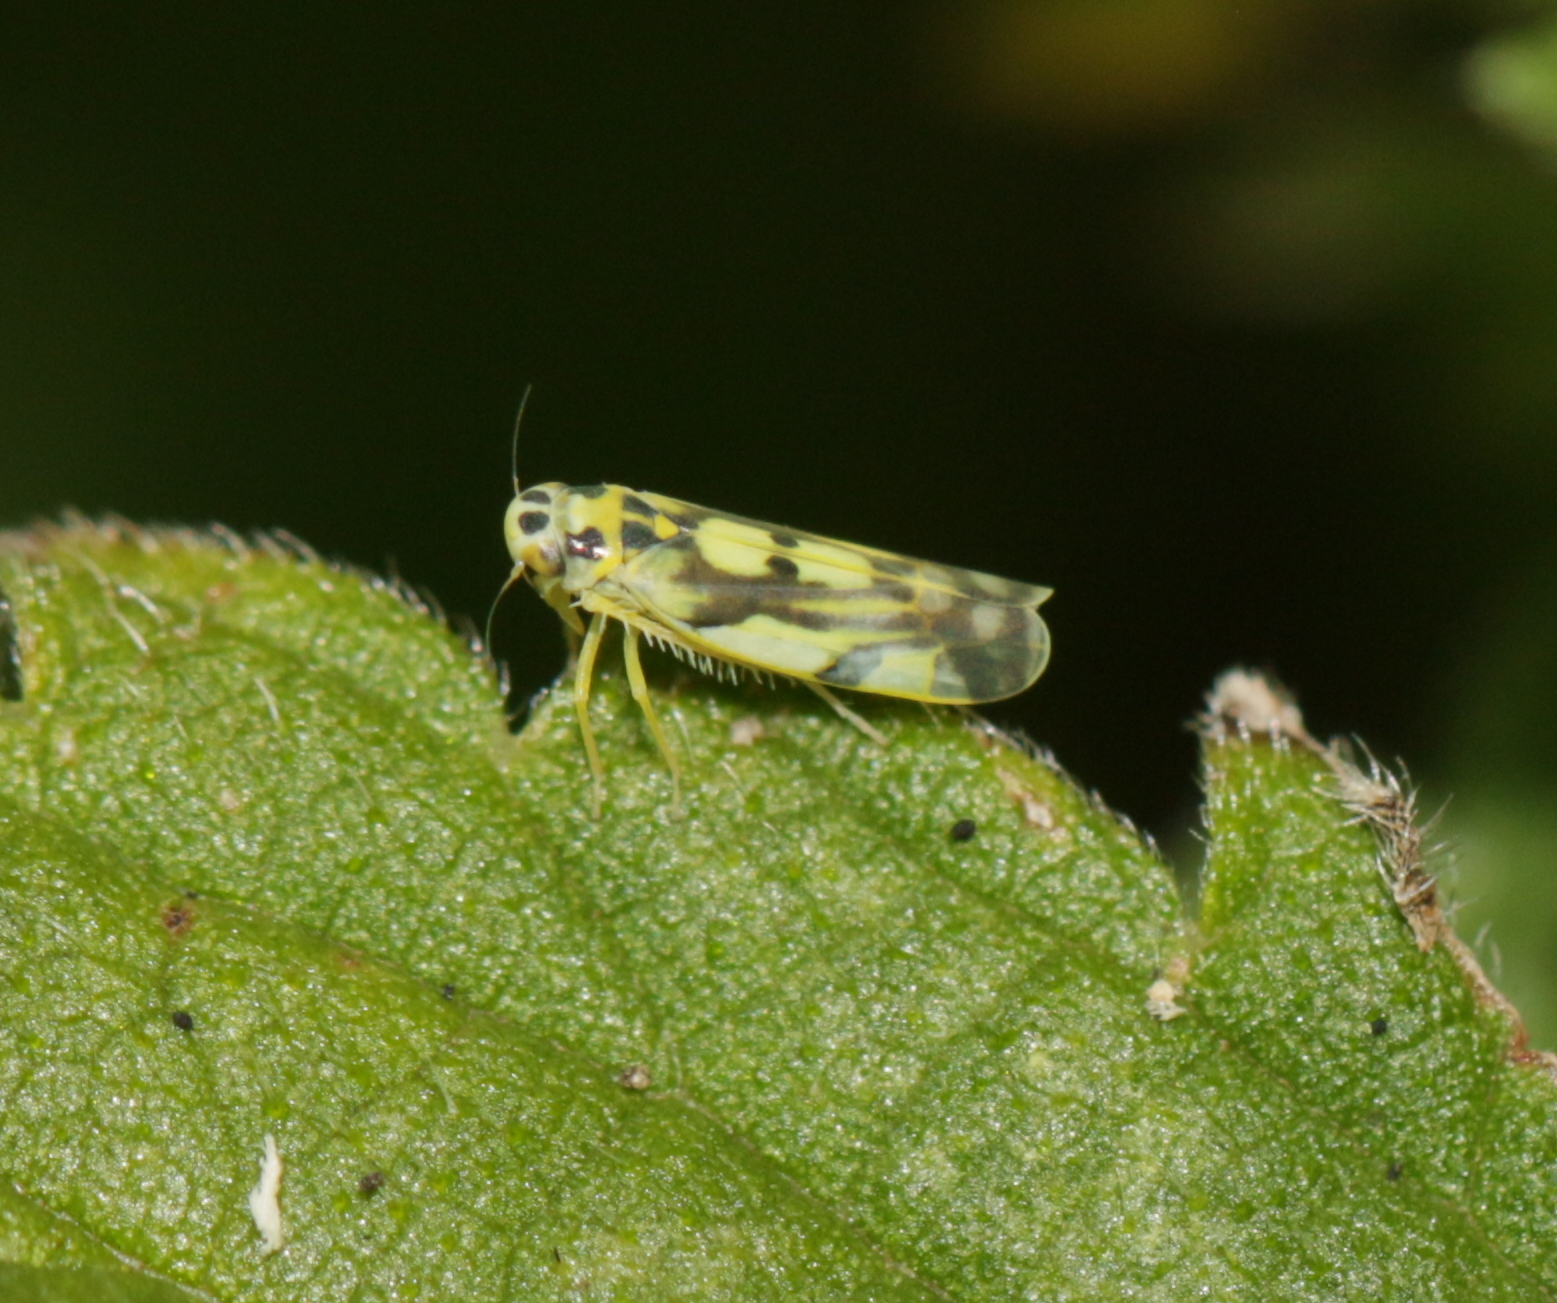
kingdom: Animalia
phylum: Arthropoda
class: Insecta
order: Hemiptera
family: Cicadellidae
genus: Eupteryx
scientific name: Eupteryx aurata
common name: Leafhopper
